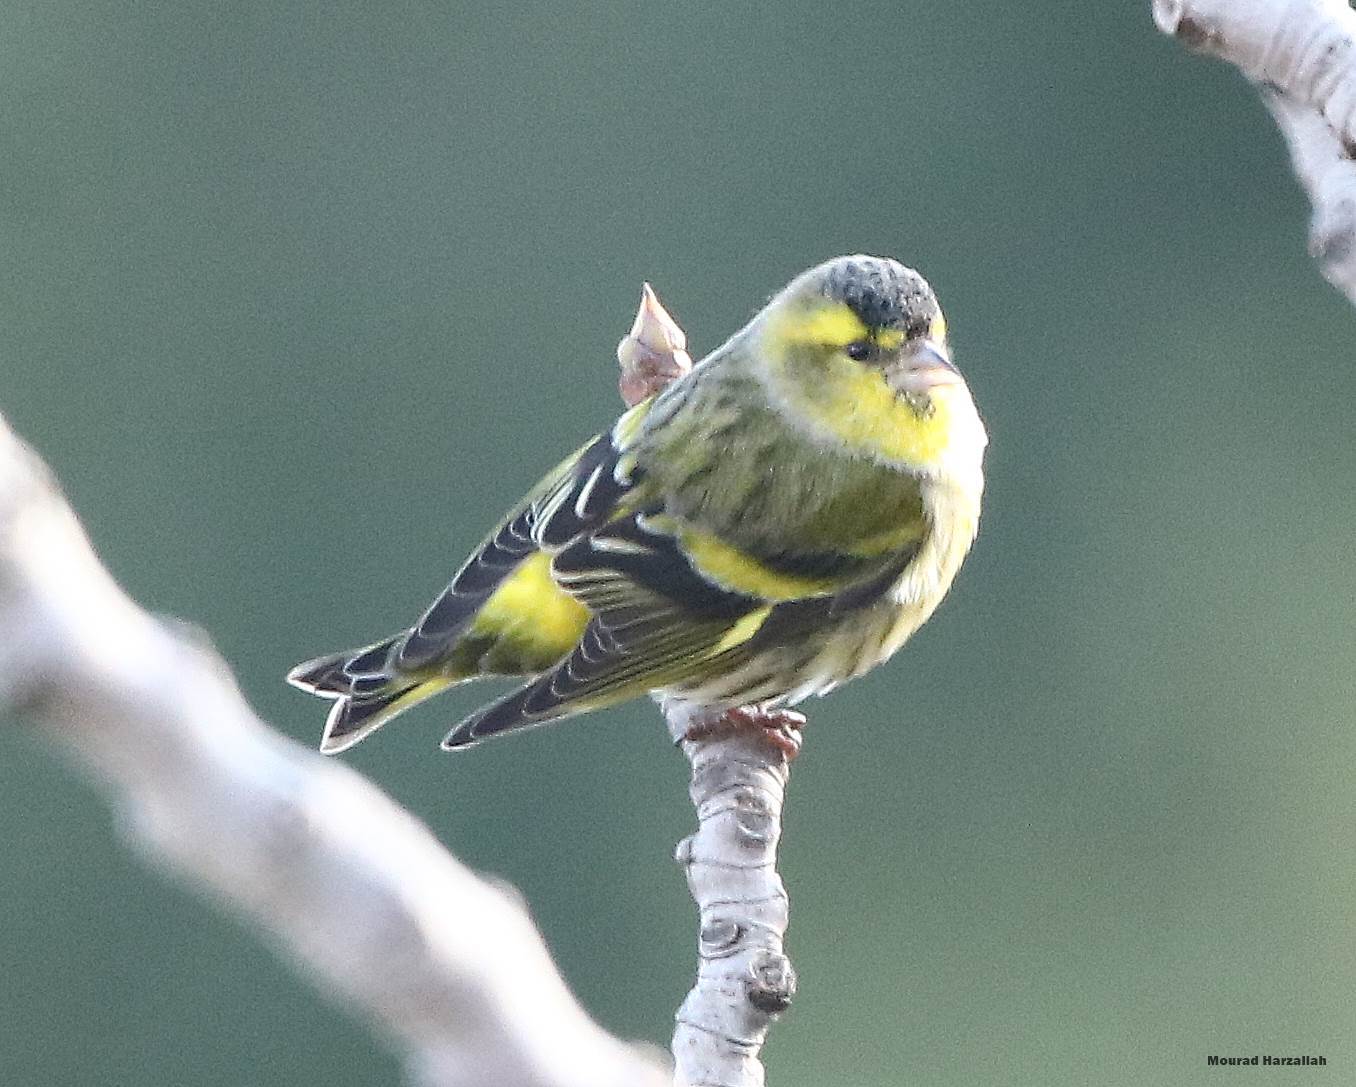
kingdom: Animalia
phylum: Chordata
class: Aves
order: Passeriformes
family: Fringillidae
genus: Spinus
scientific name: Spinus spinus
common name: Eurasian siskin
